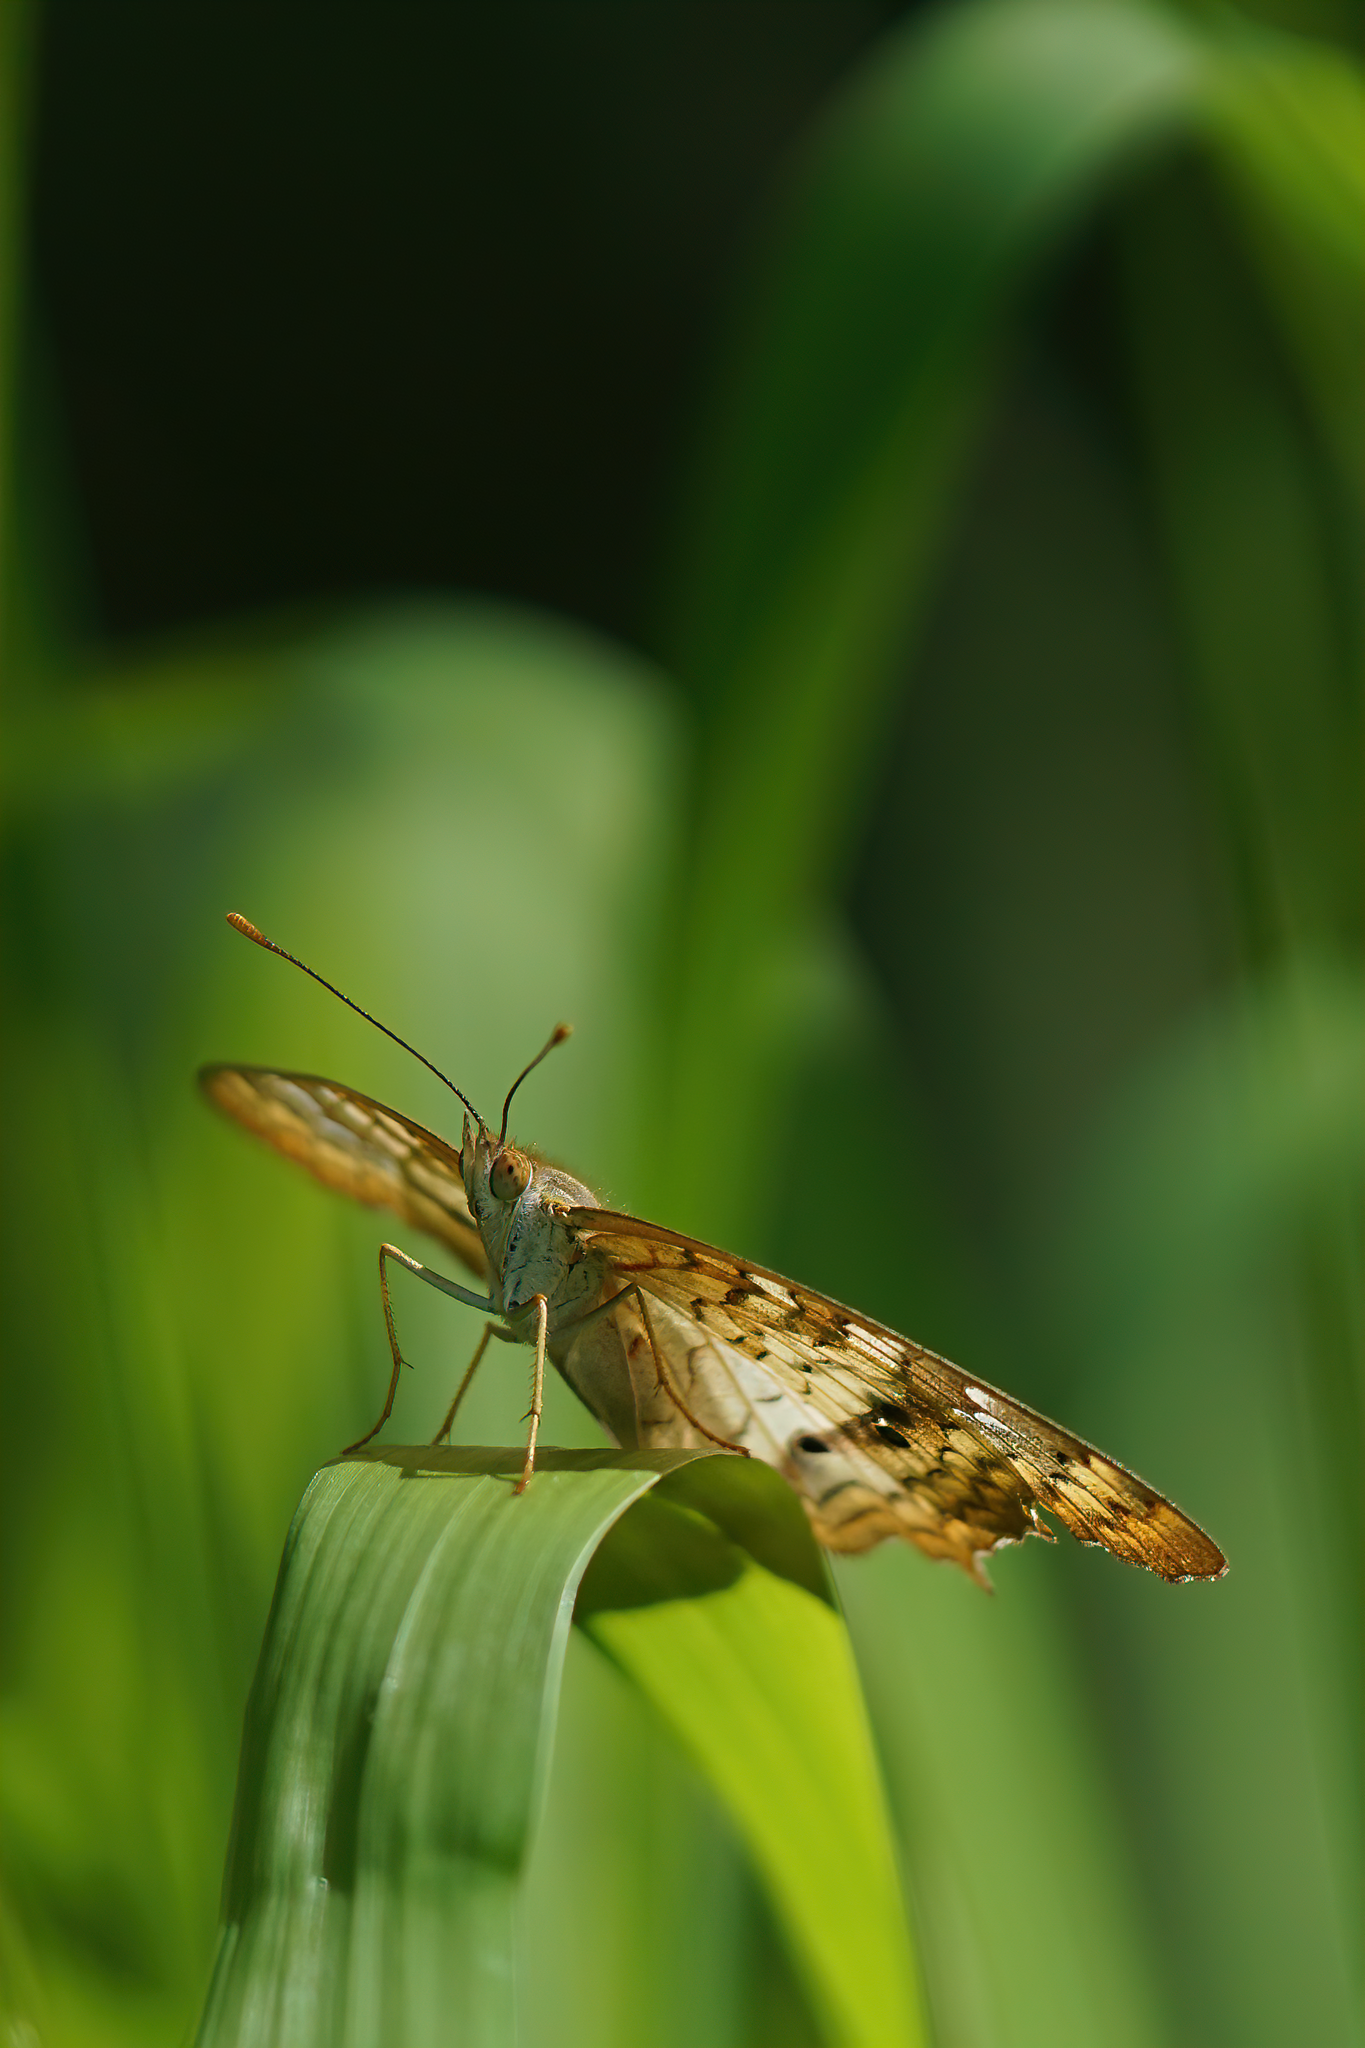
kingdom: Animalia
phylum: Arthropoda
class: Insecta
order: Lepidoptera
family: Nymphalidae
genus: Anartia
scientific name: Anartia jatrophae
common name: White peacock
